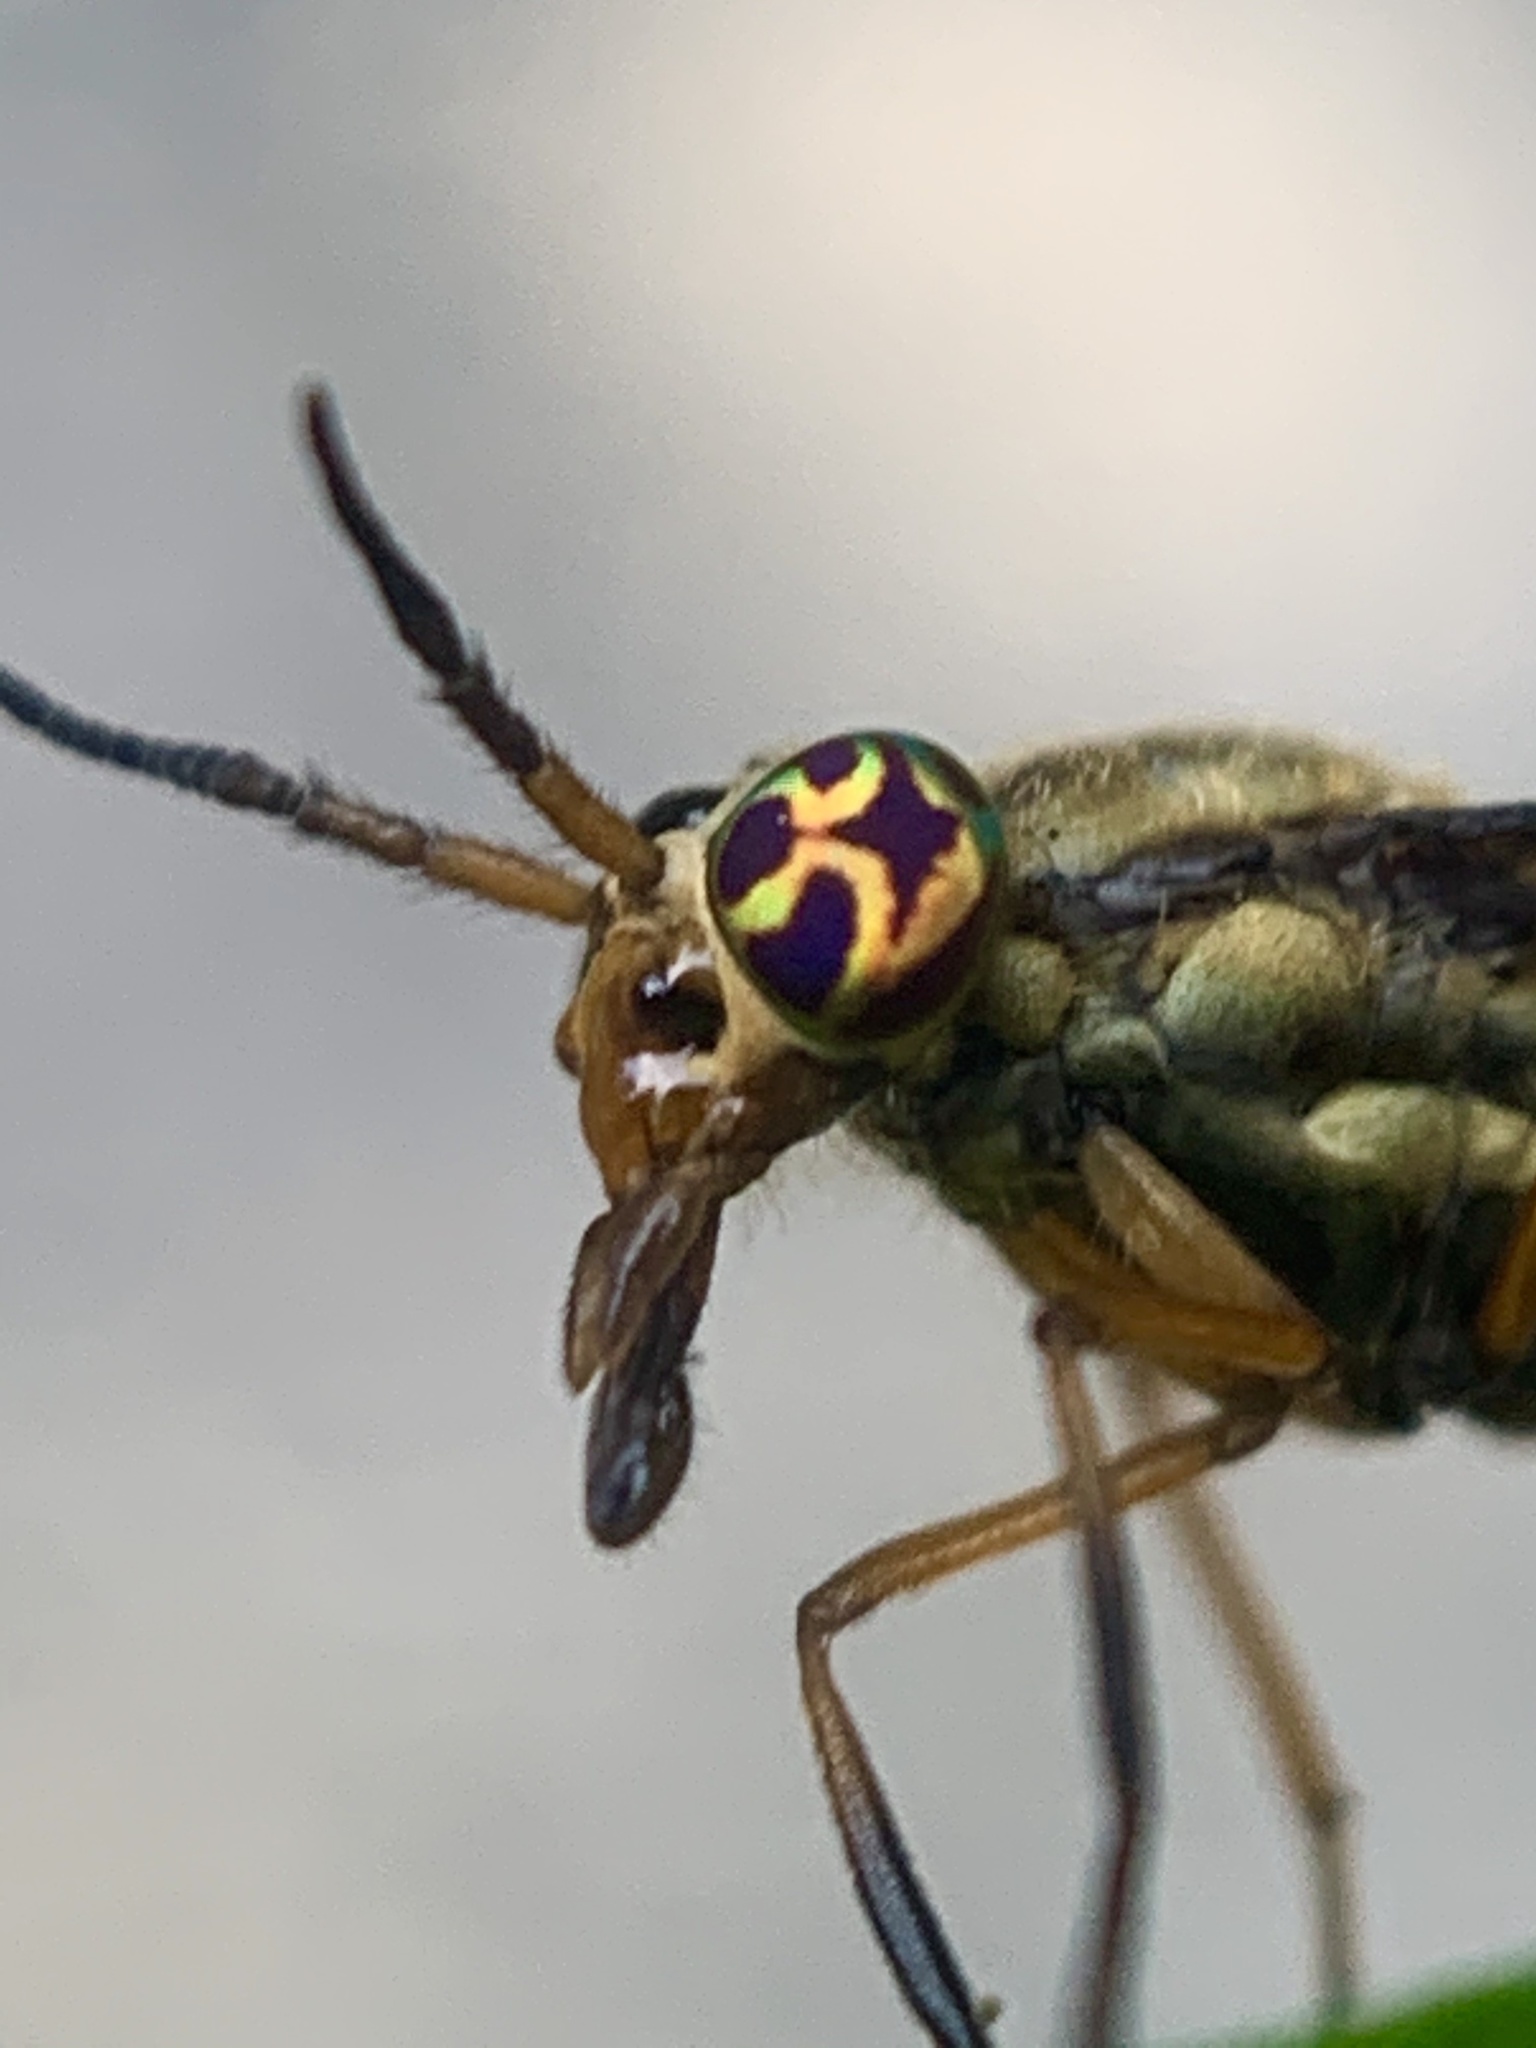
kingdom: Animalia
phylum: Arthropoda
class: Insecta
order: Diptera
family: Tabanidae
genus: Chrysops
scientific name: Chrysops vittatus
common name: Striped deer fly
